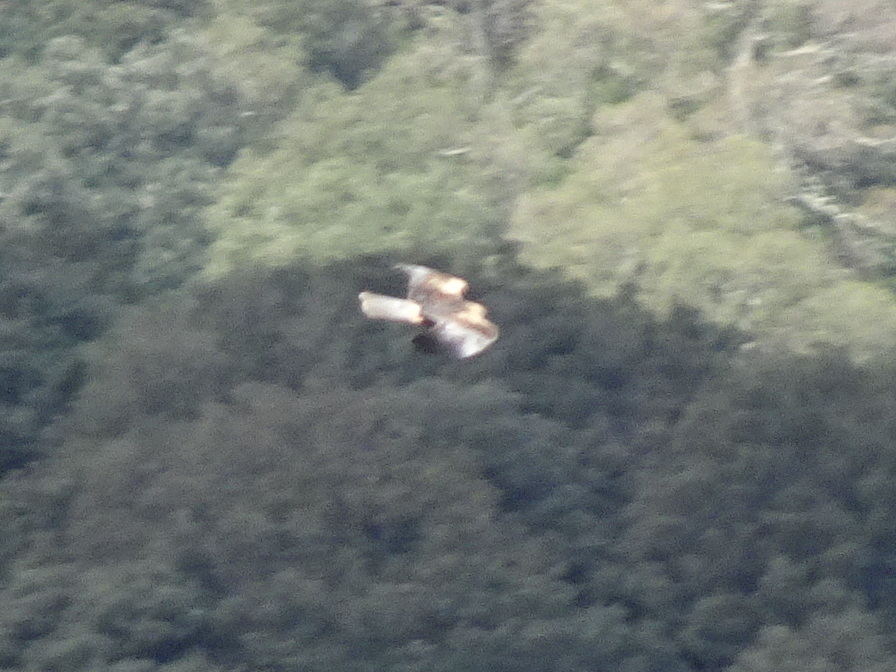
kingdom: Animalia
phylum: Chordata
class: Aves
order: Accipitriformes
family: Accipitridae
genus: Hieraaetus
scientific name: Hieraaetus pennatus
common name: Booted eagle
